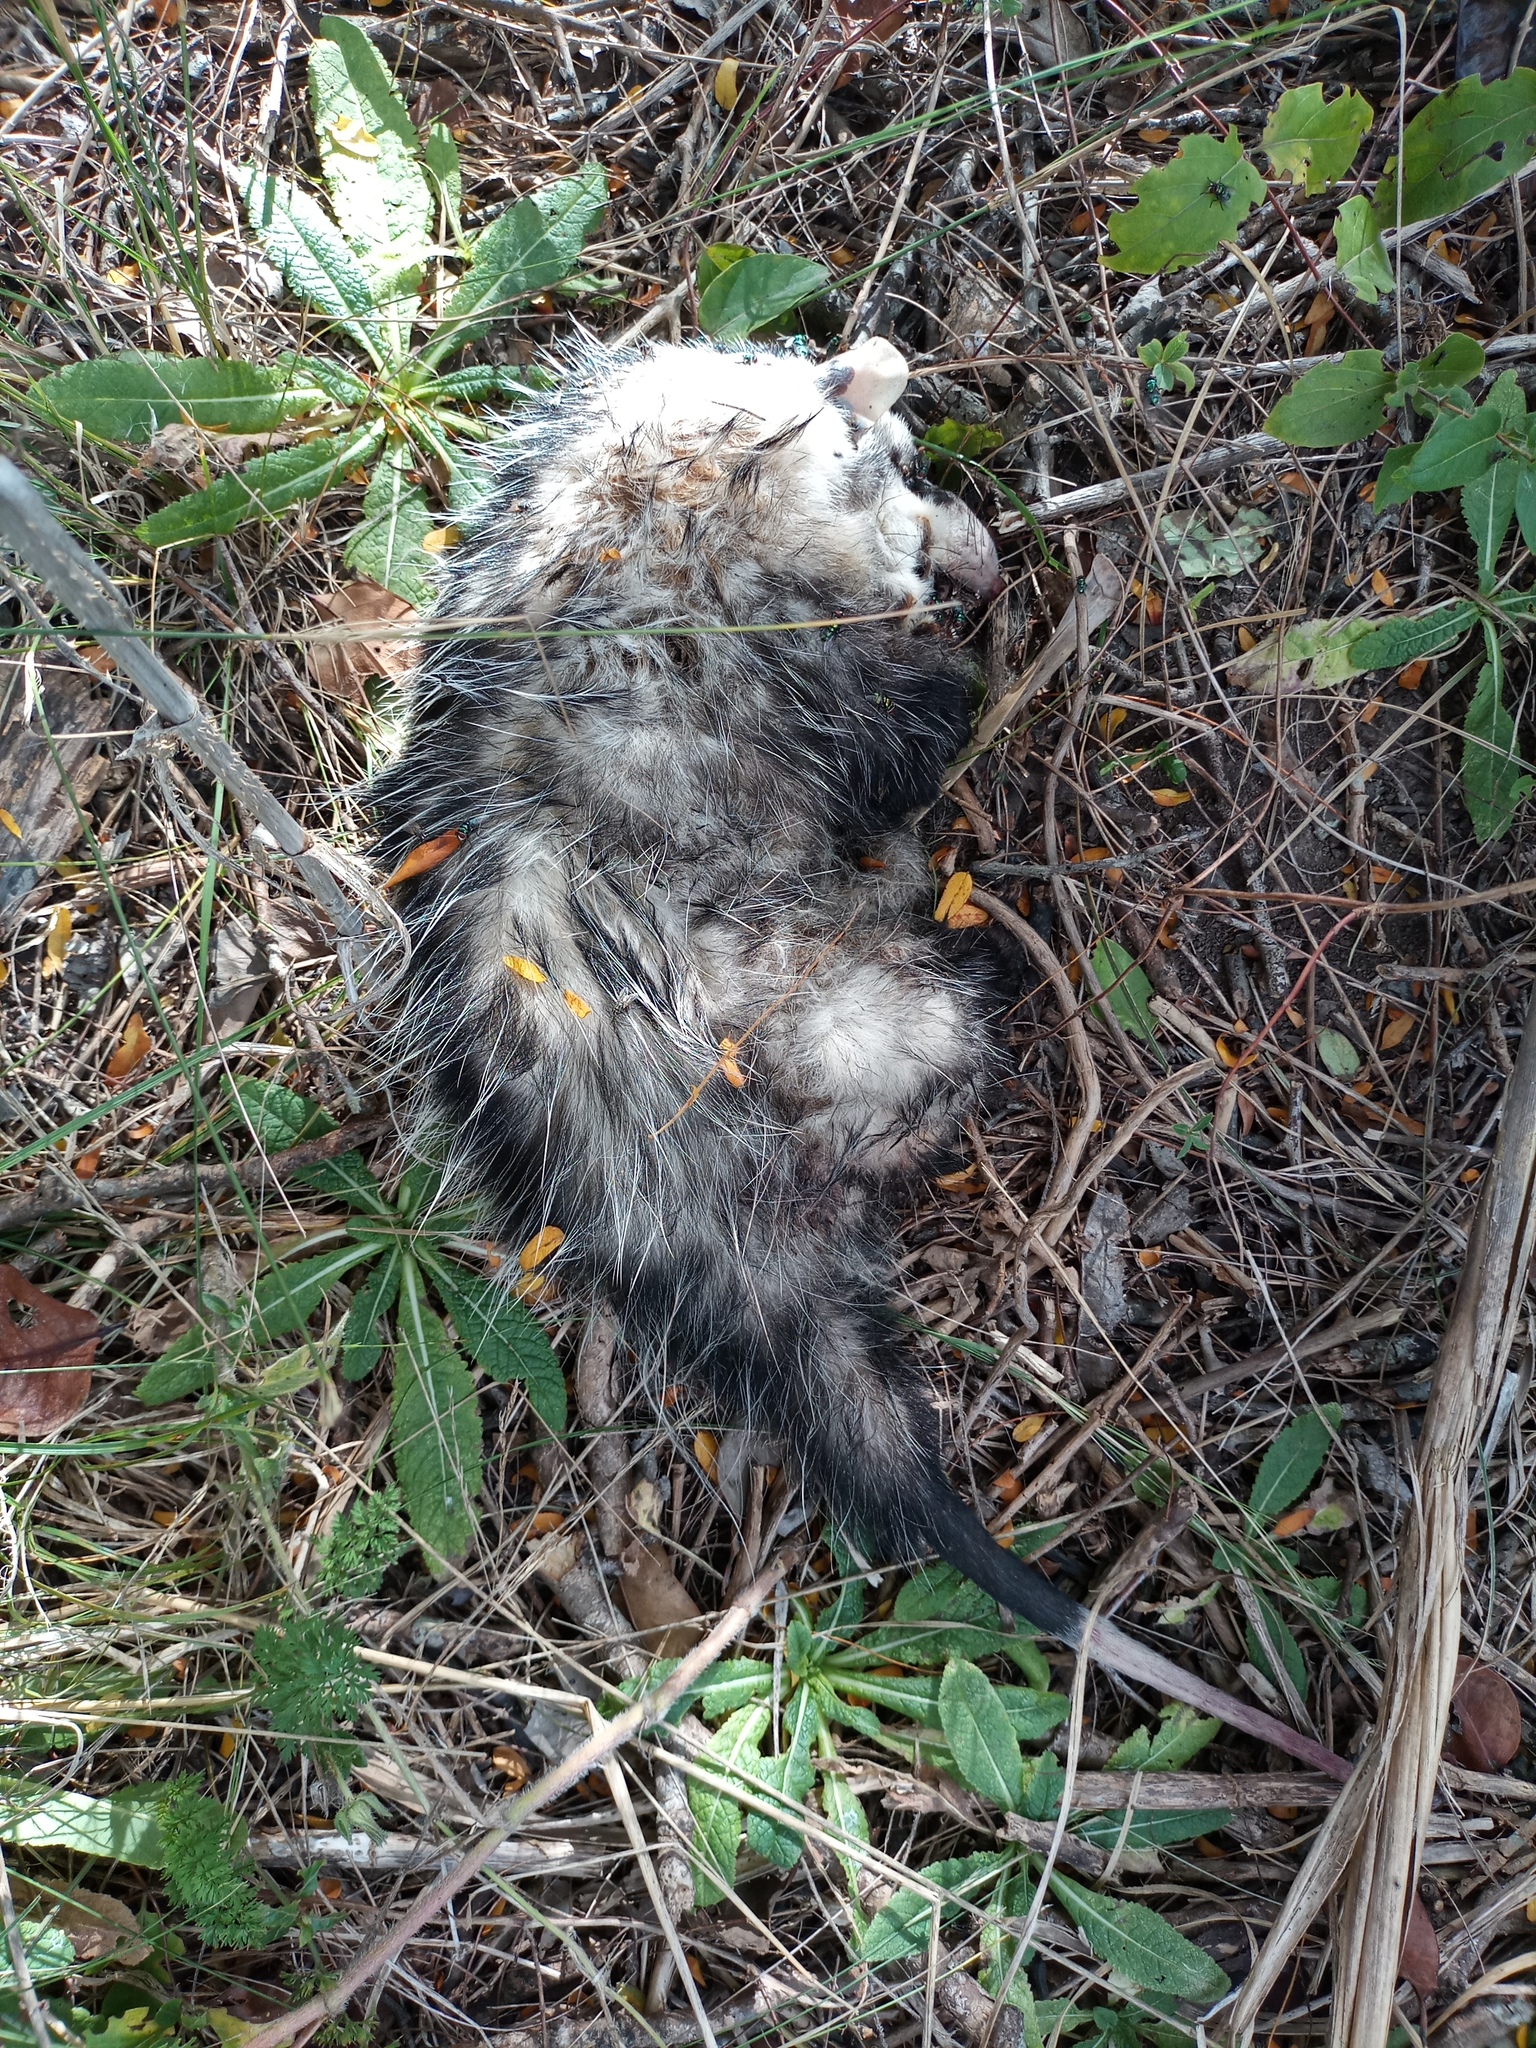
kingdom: Animalia
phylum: Chordata
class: Mammalia
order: Didelphimorphia
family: Didelphidae
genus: Didelphis
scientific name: Didelphis albiventris
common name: White-eared opossum
